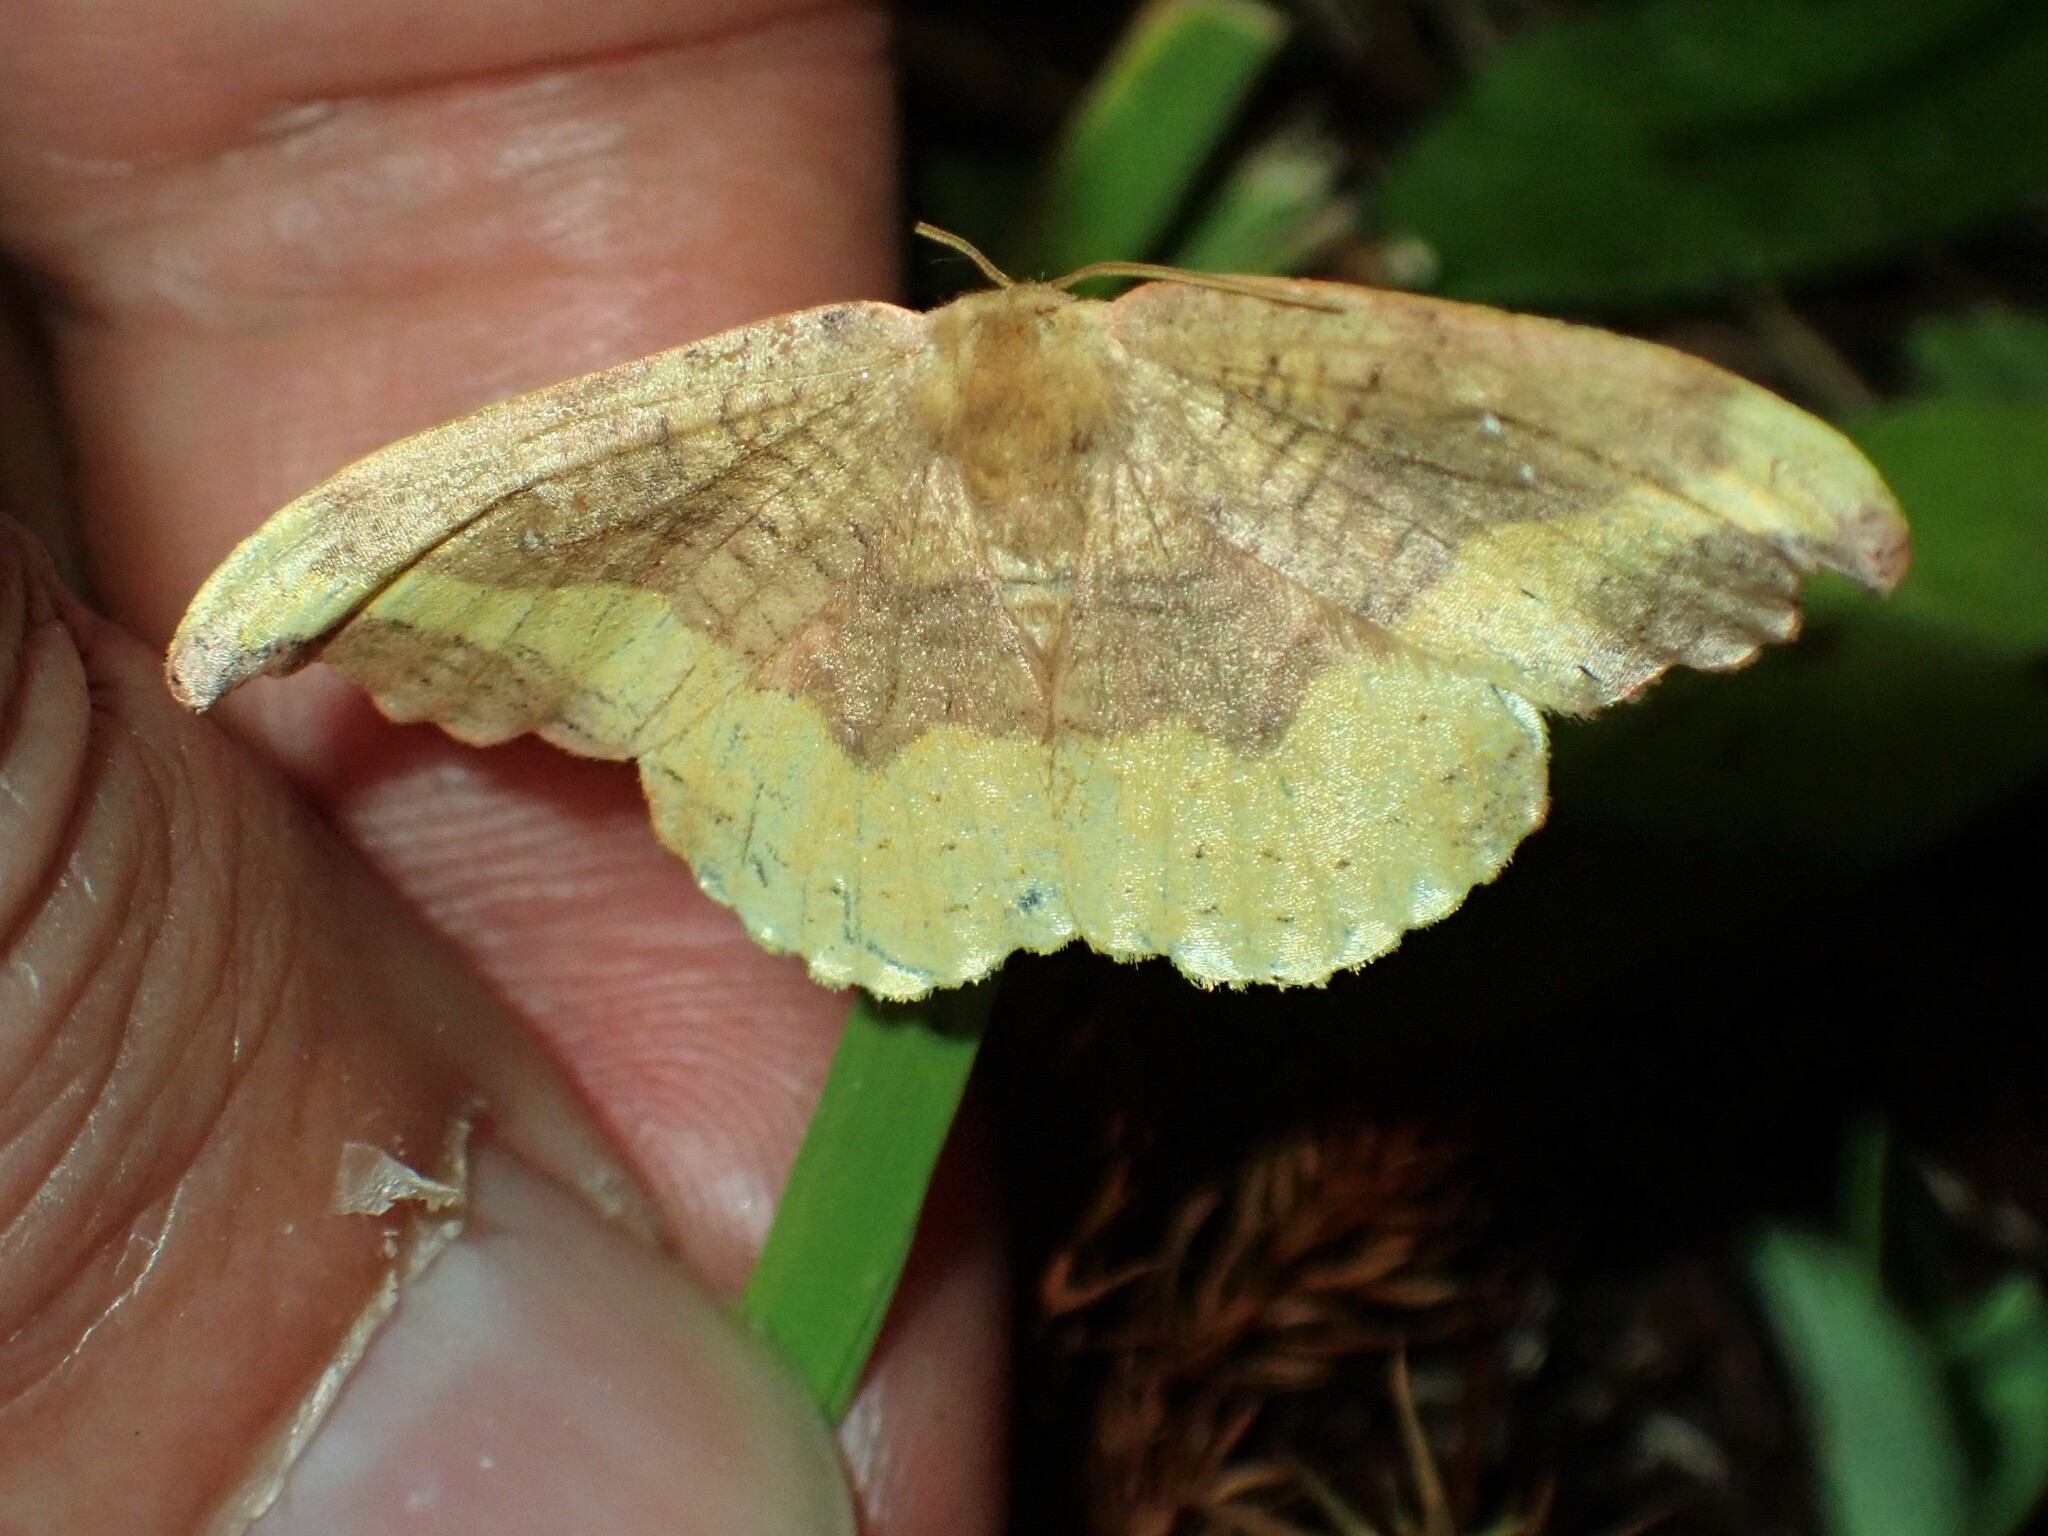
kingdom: Animalia
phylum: Arthropoda
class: Insecta
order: Lepidoptera
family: Drepanidae
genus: Oreta
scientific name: Oreta rosea
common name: Rose hooktip
